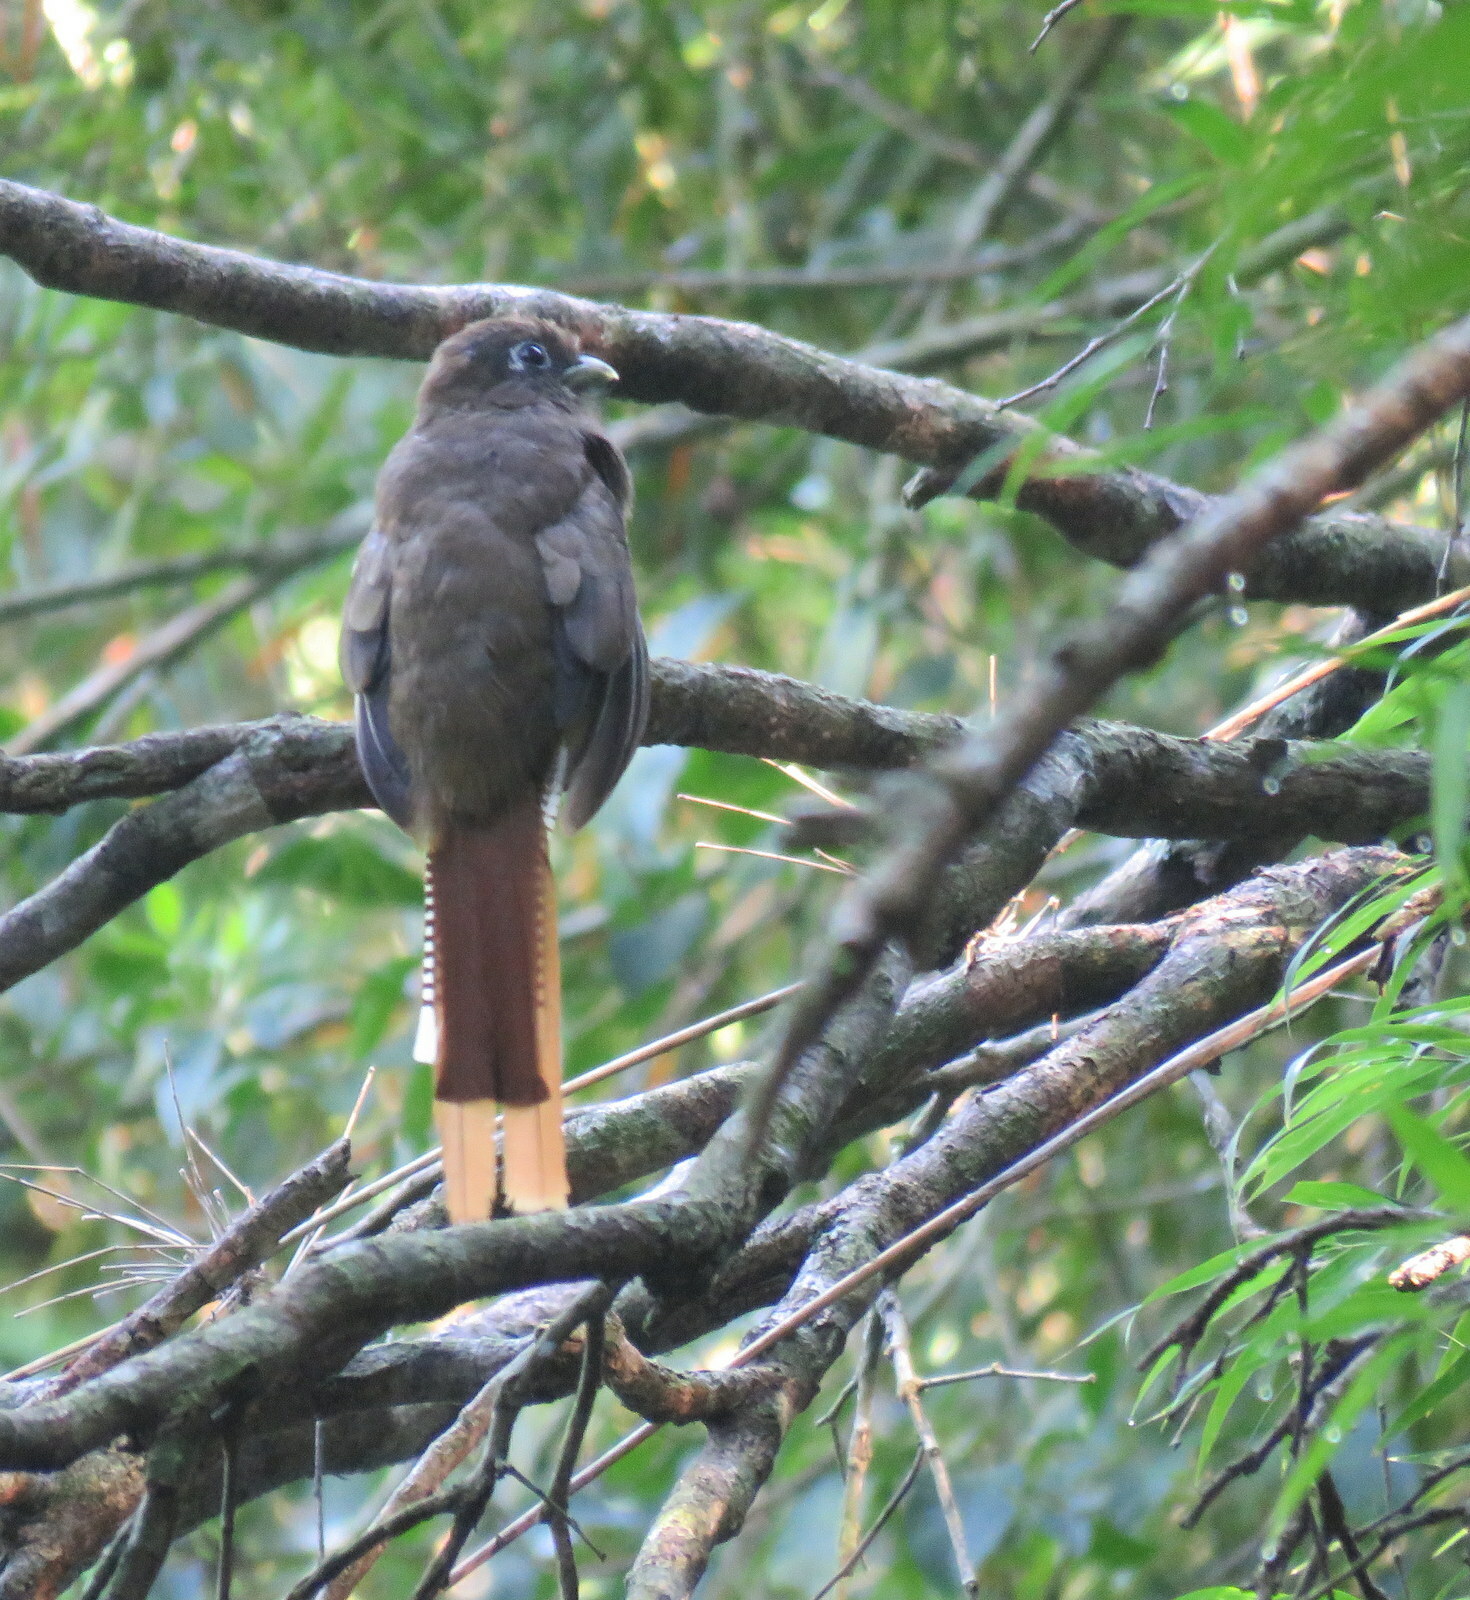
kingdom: Animalia
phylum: Chordata
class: Aves
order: Trogoniformes
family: Trogonidae
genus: Trogon
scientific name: Trogon rufus
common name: Black-throated trogon
